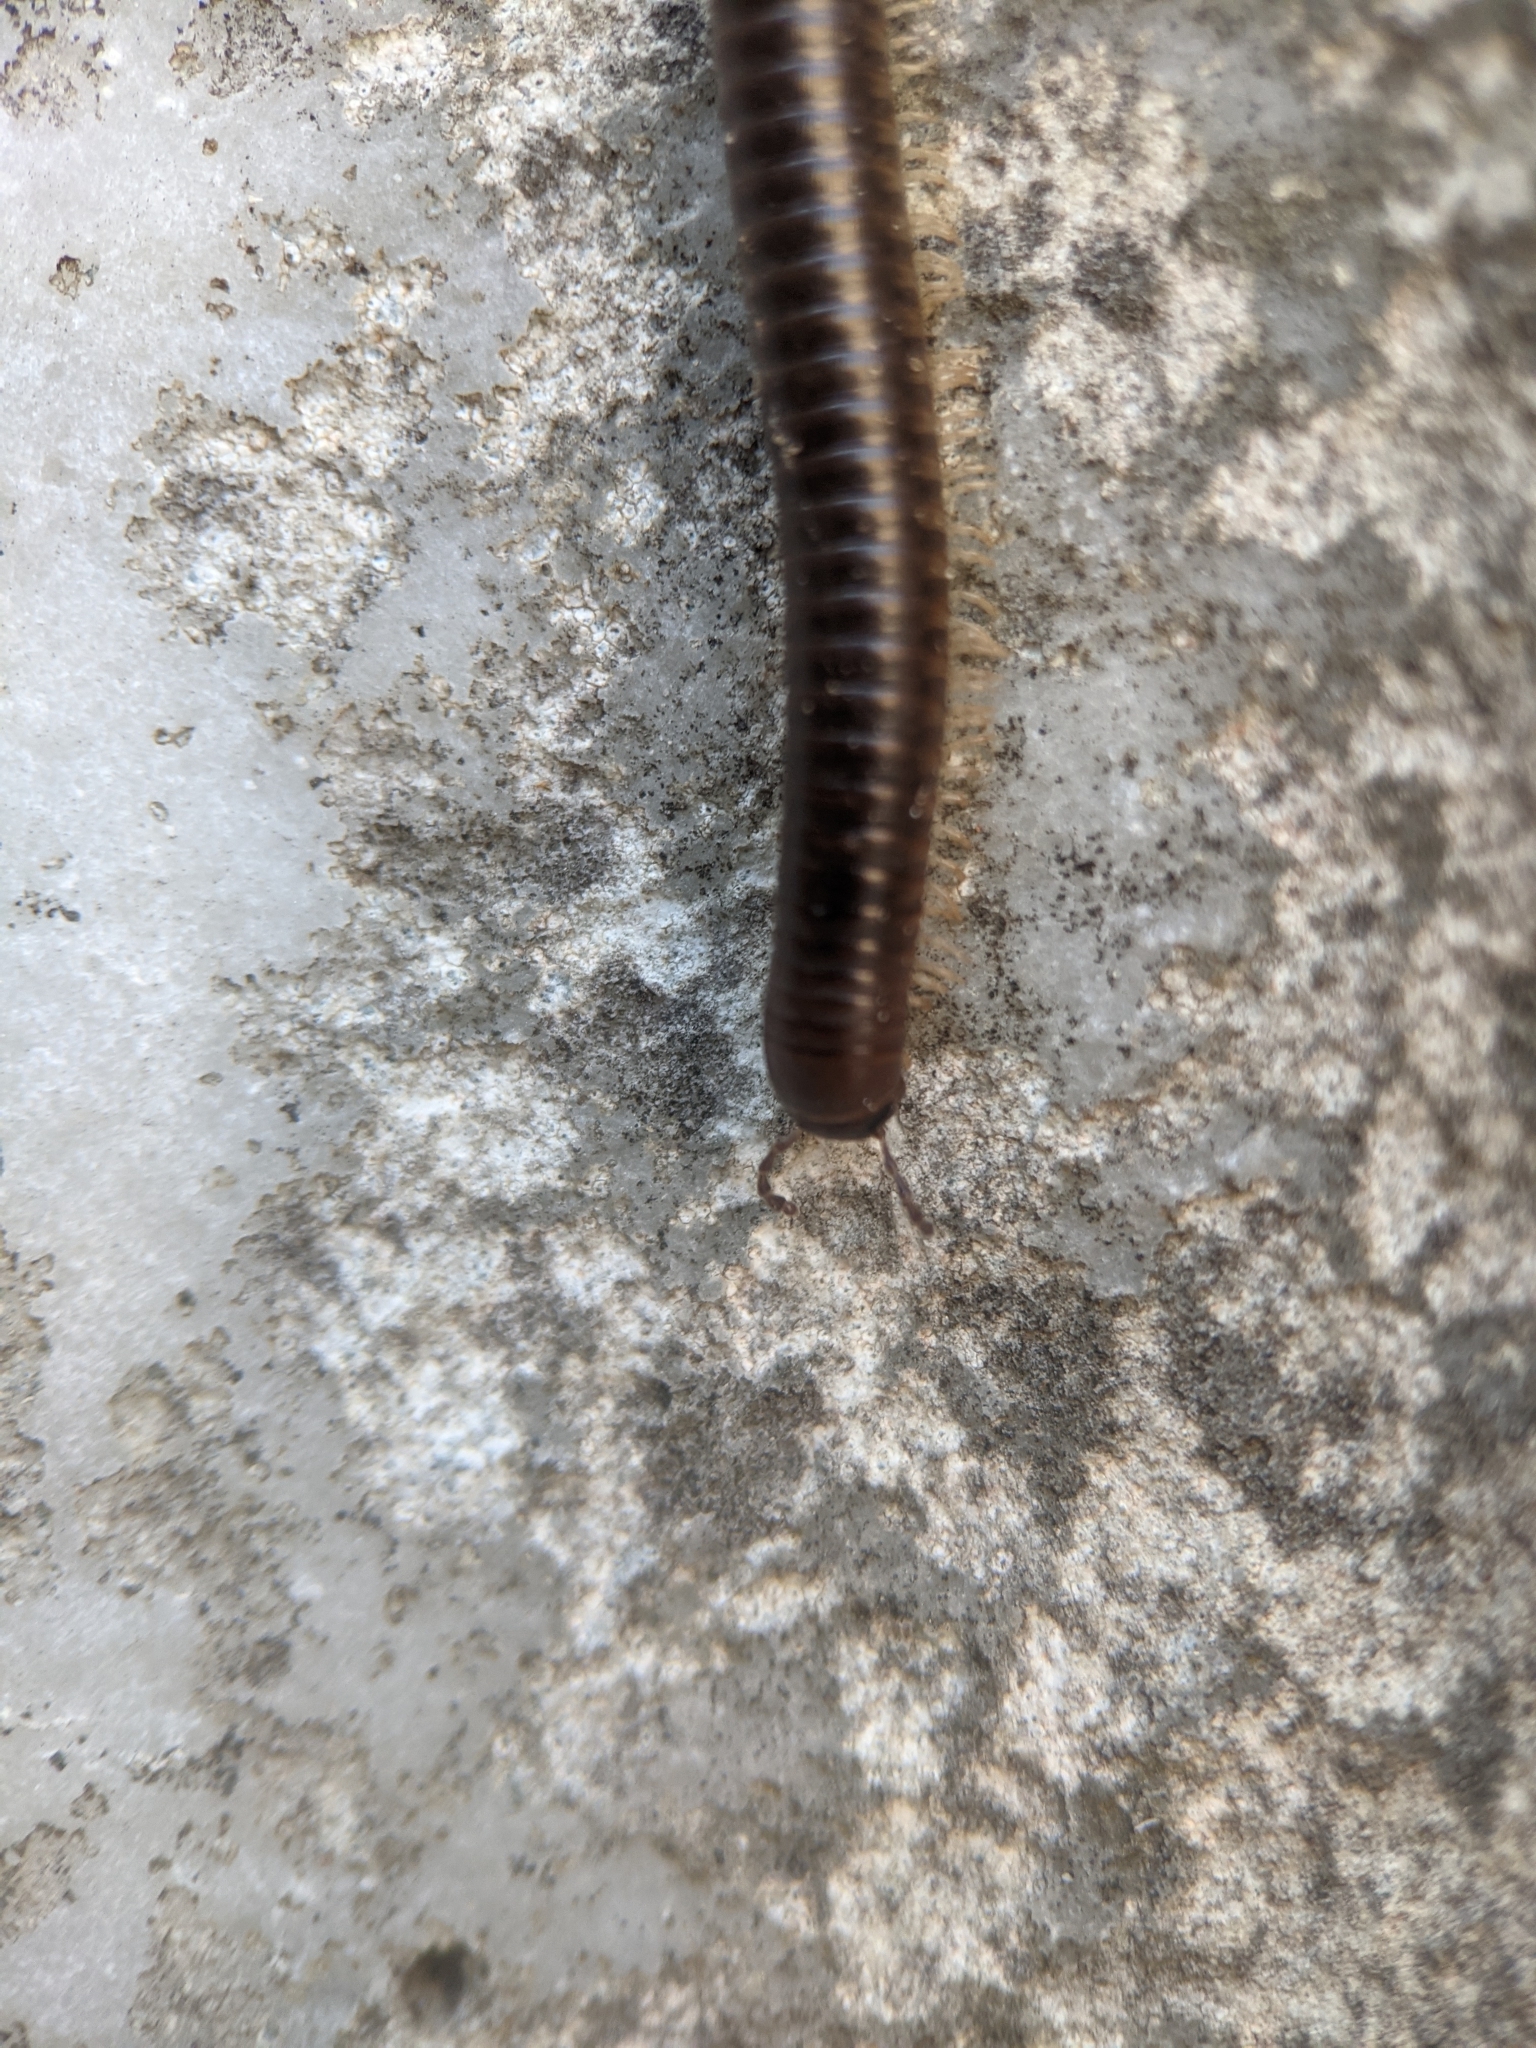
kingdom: Animalia
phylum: Arthropoda
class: Diplopoda
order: Julida
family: Julidae
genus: Pachyiulus
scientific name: Pachyiulus flavipes
